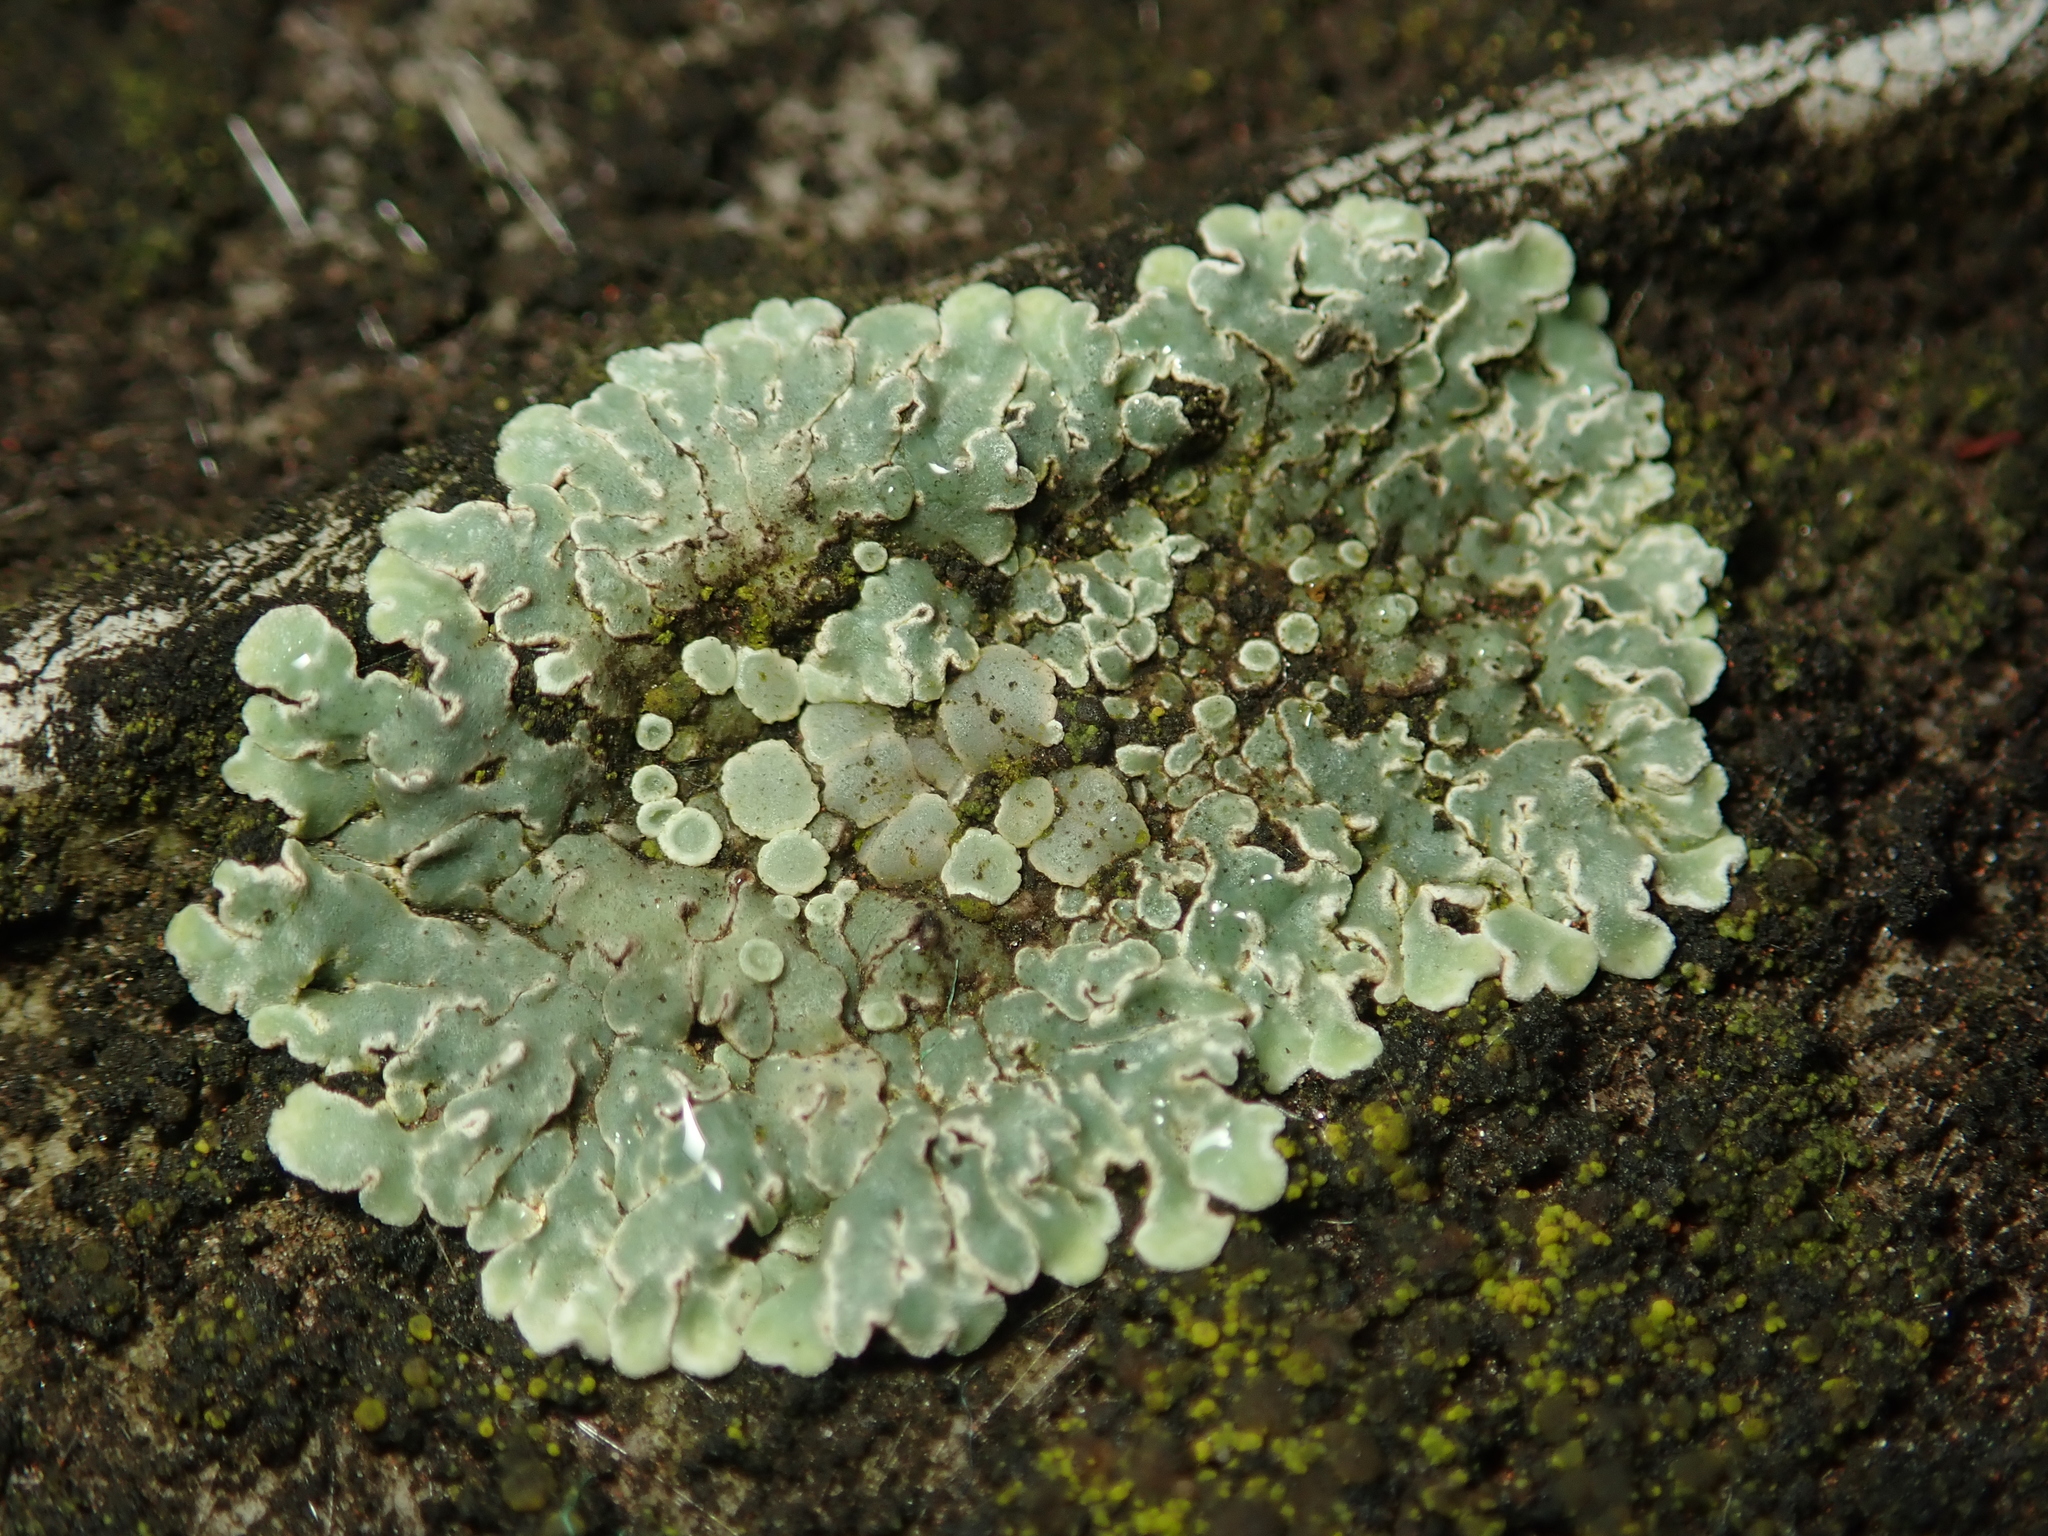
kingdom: Fungi
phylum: Ascomycota
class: Lecanoromycetes
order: Lecanorales
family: Lecanoraceae
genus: Protoparmeliopsis
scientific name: Protoparmeliopsis muralis
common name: Stonewall rim lichen
